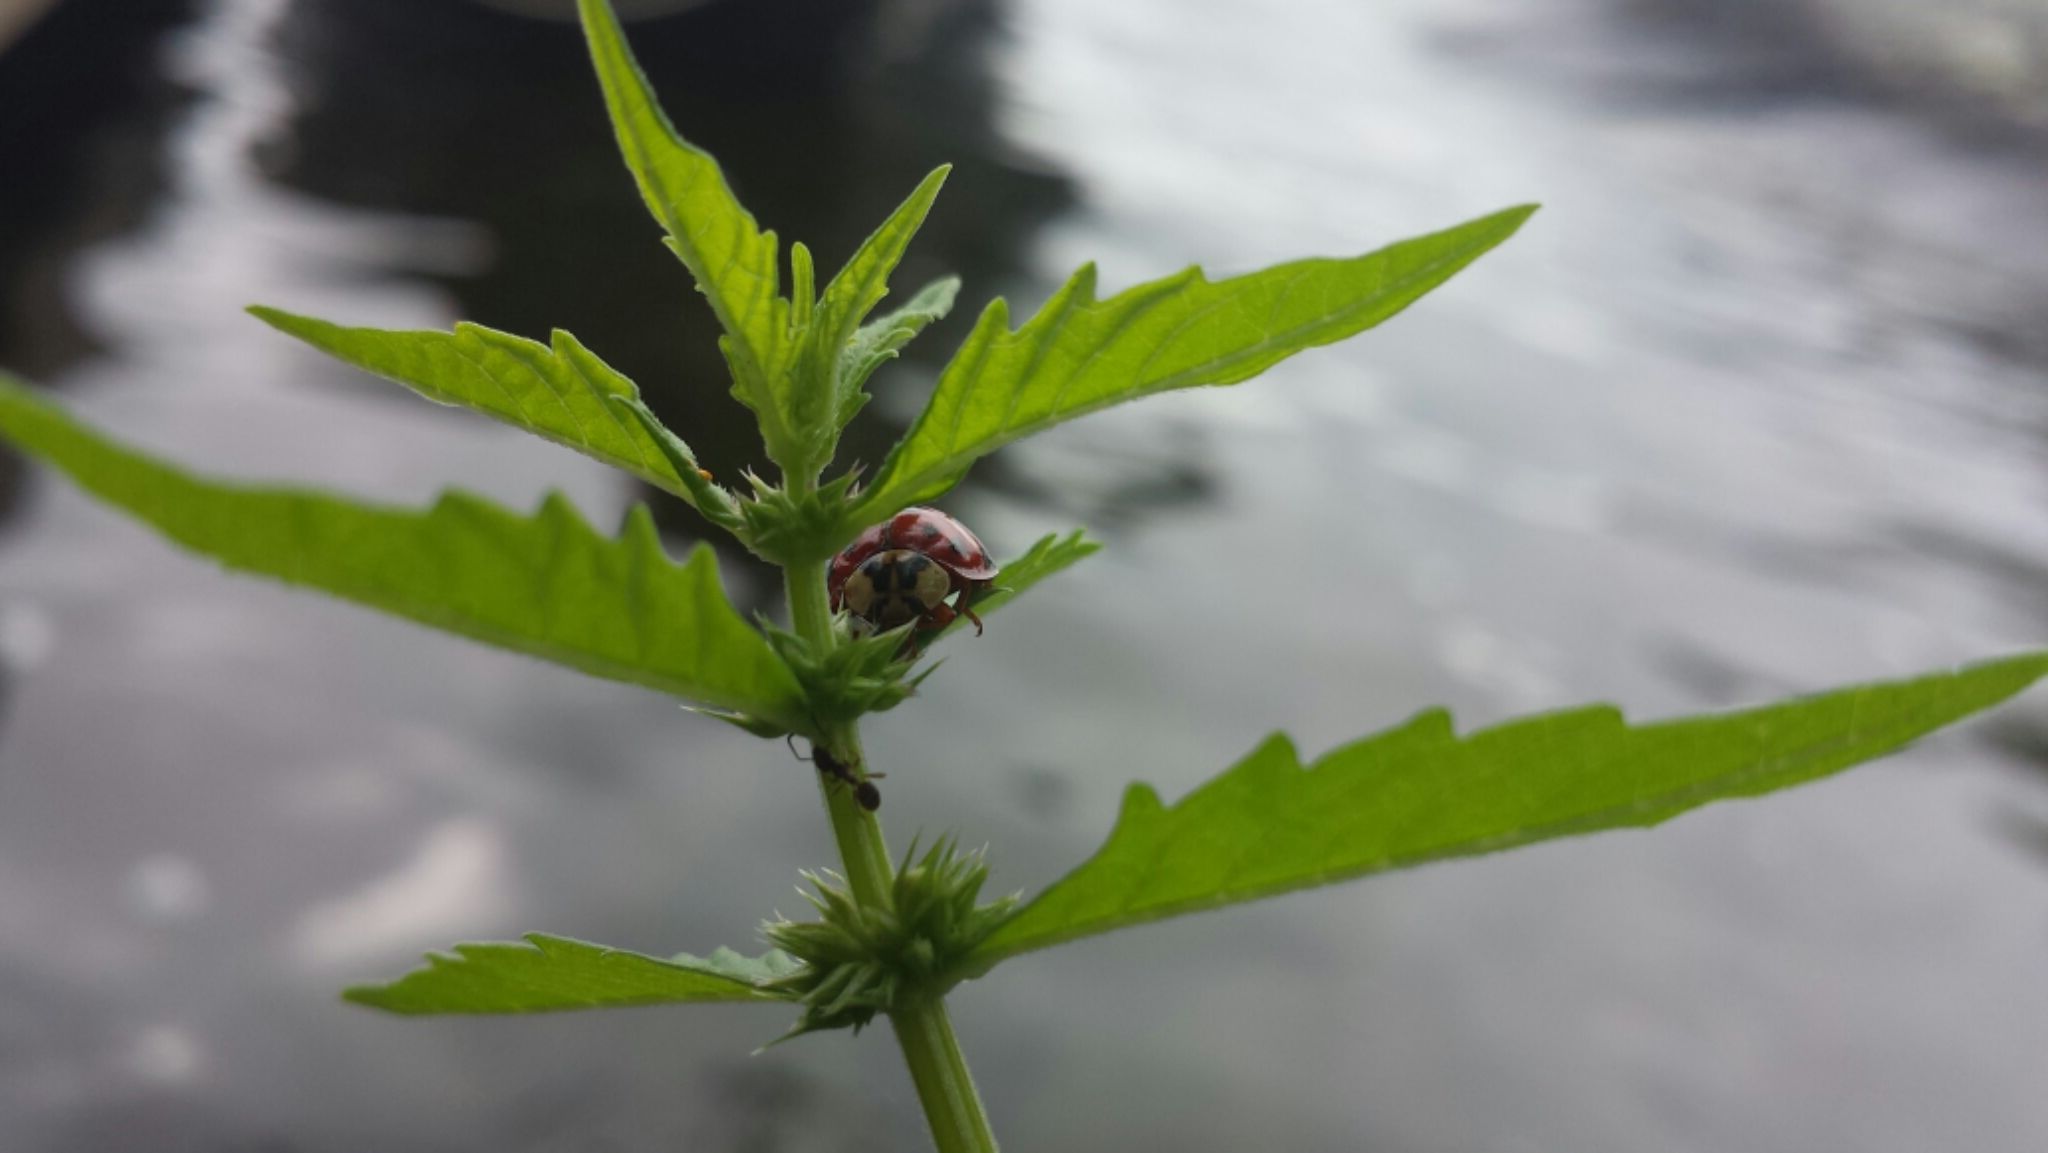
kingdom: Animalia
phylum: Arthropoda
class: Insecta
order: Coleoptera
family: Coccinellidae
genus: Harmonia
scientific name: Harmonia axyridis
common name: Harlequin ladybird
